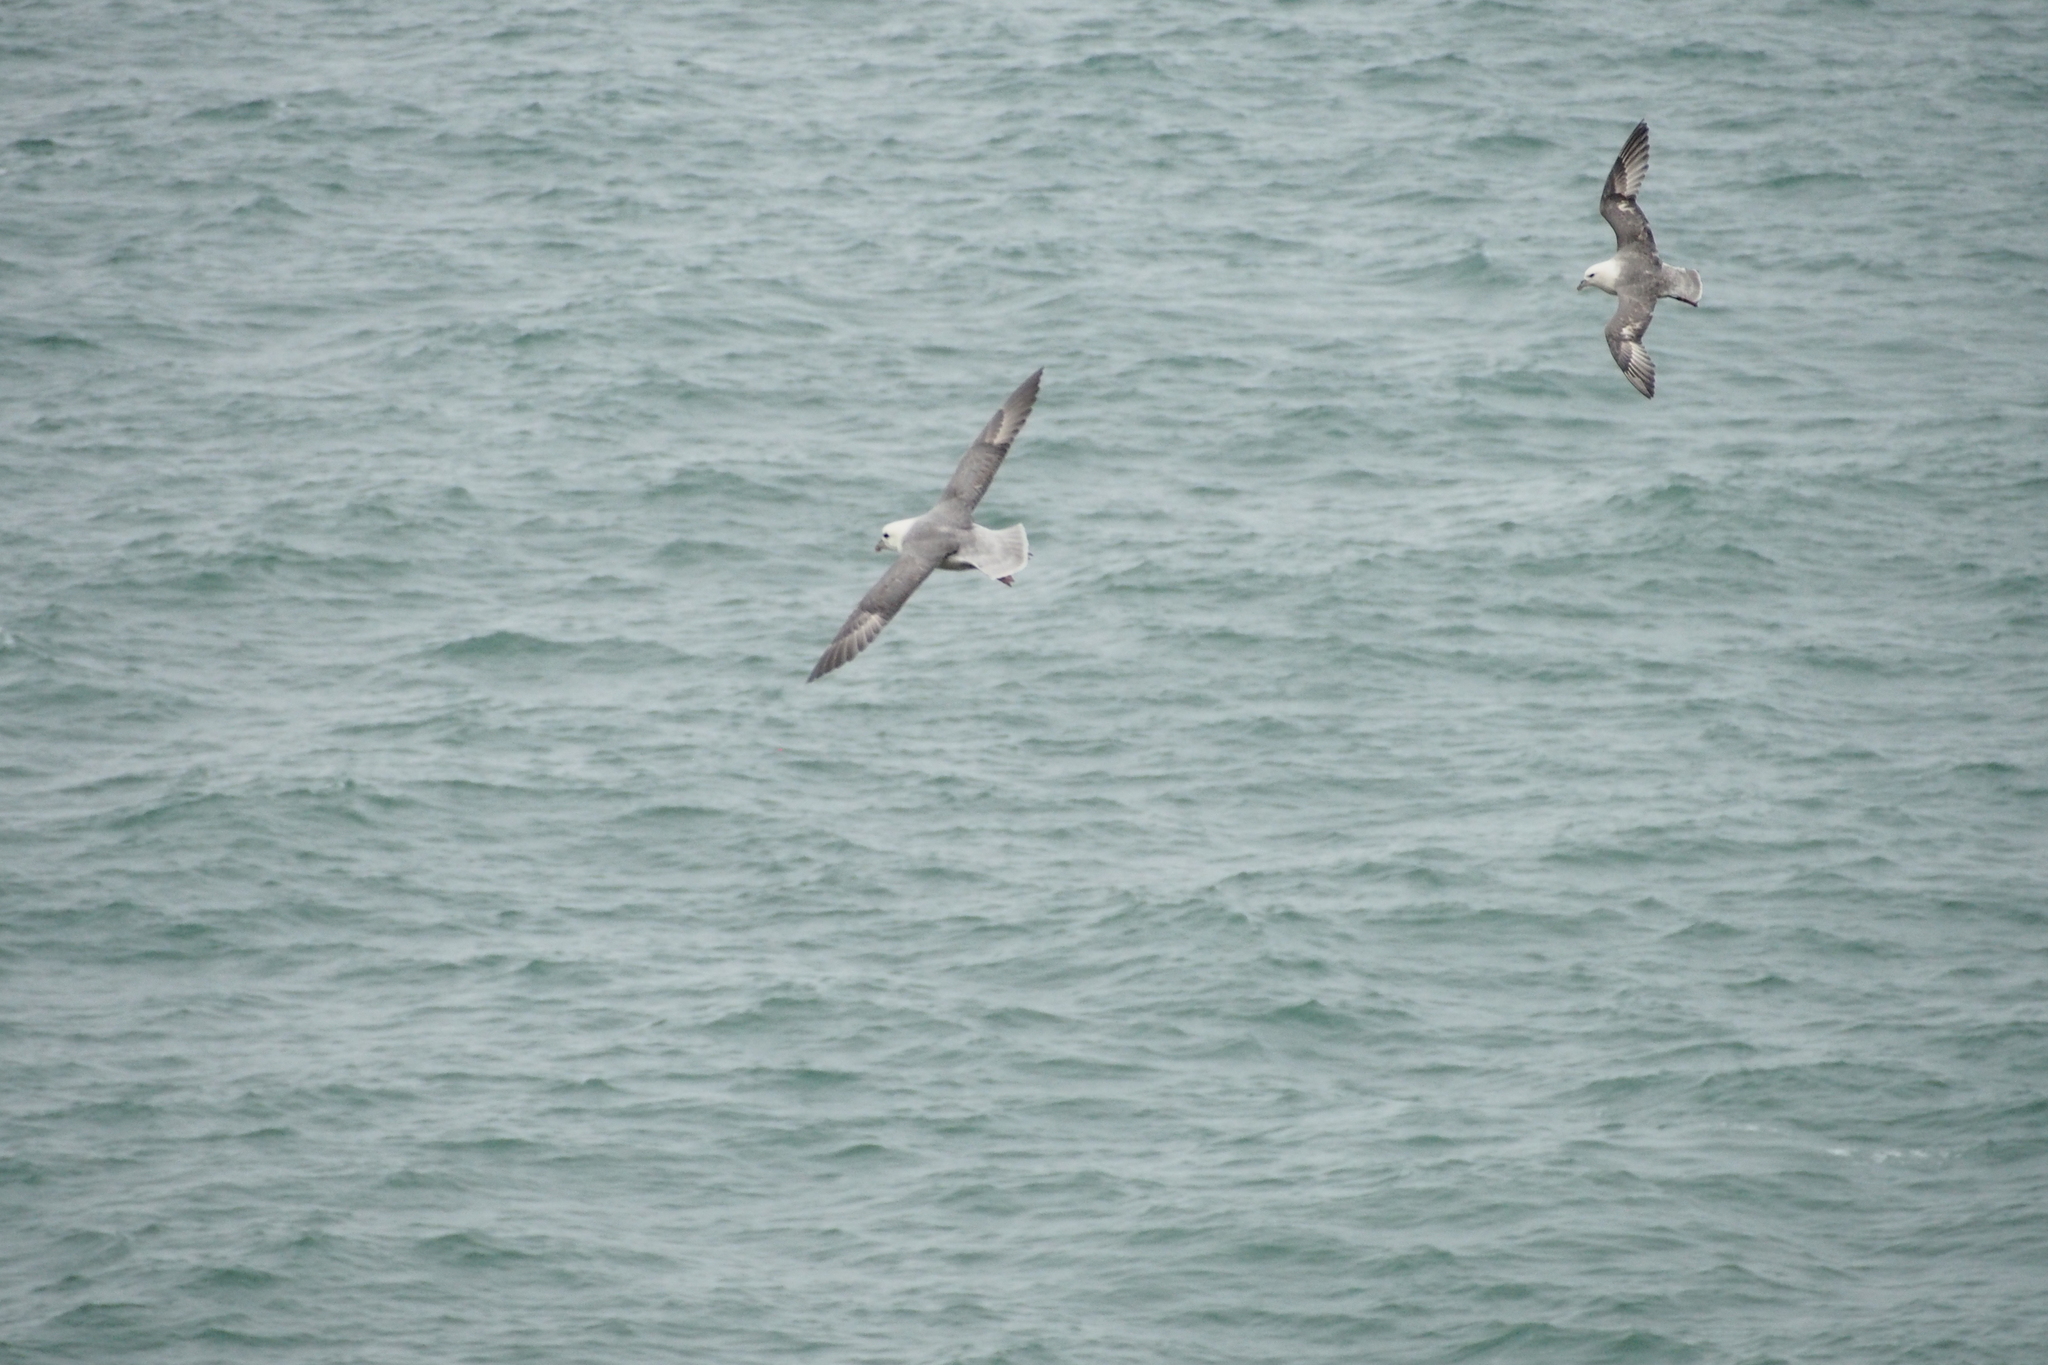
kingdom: Animalia
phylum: Chordata
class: Aves
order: Procellariiformes
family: Procellariidae
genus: Fulmarus
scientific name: Fulmarus glacialis
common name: Northern fulmar
